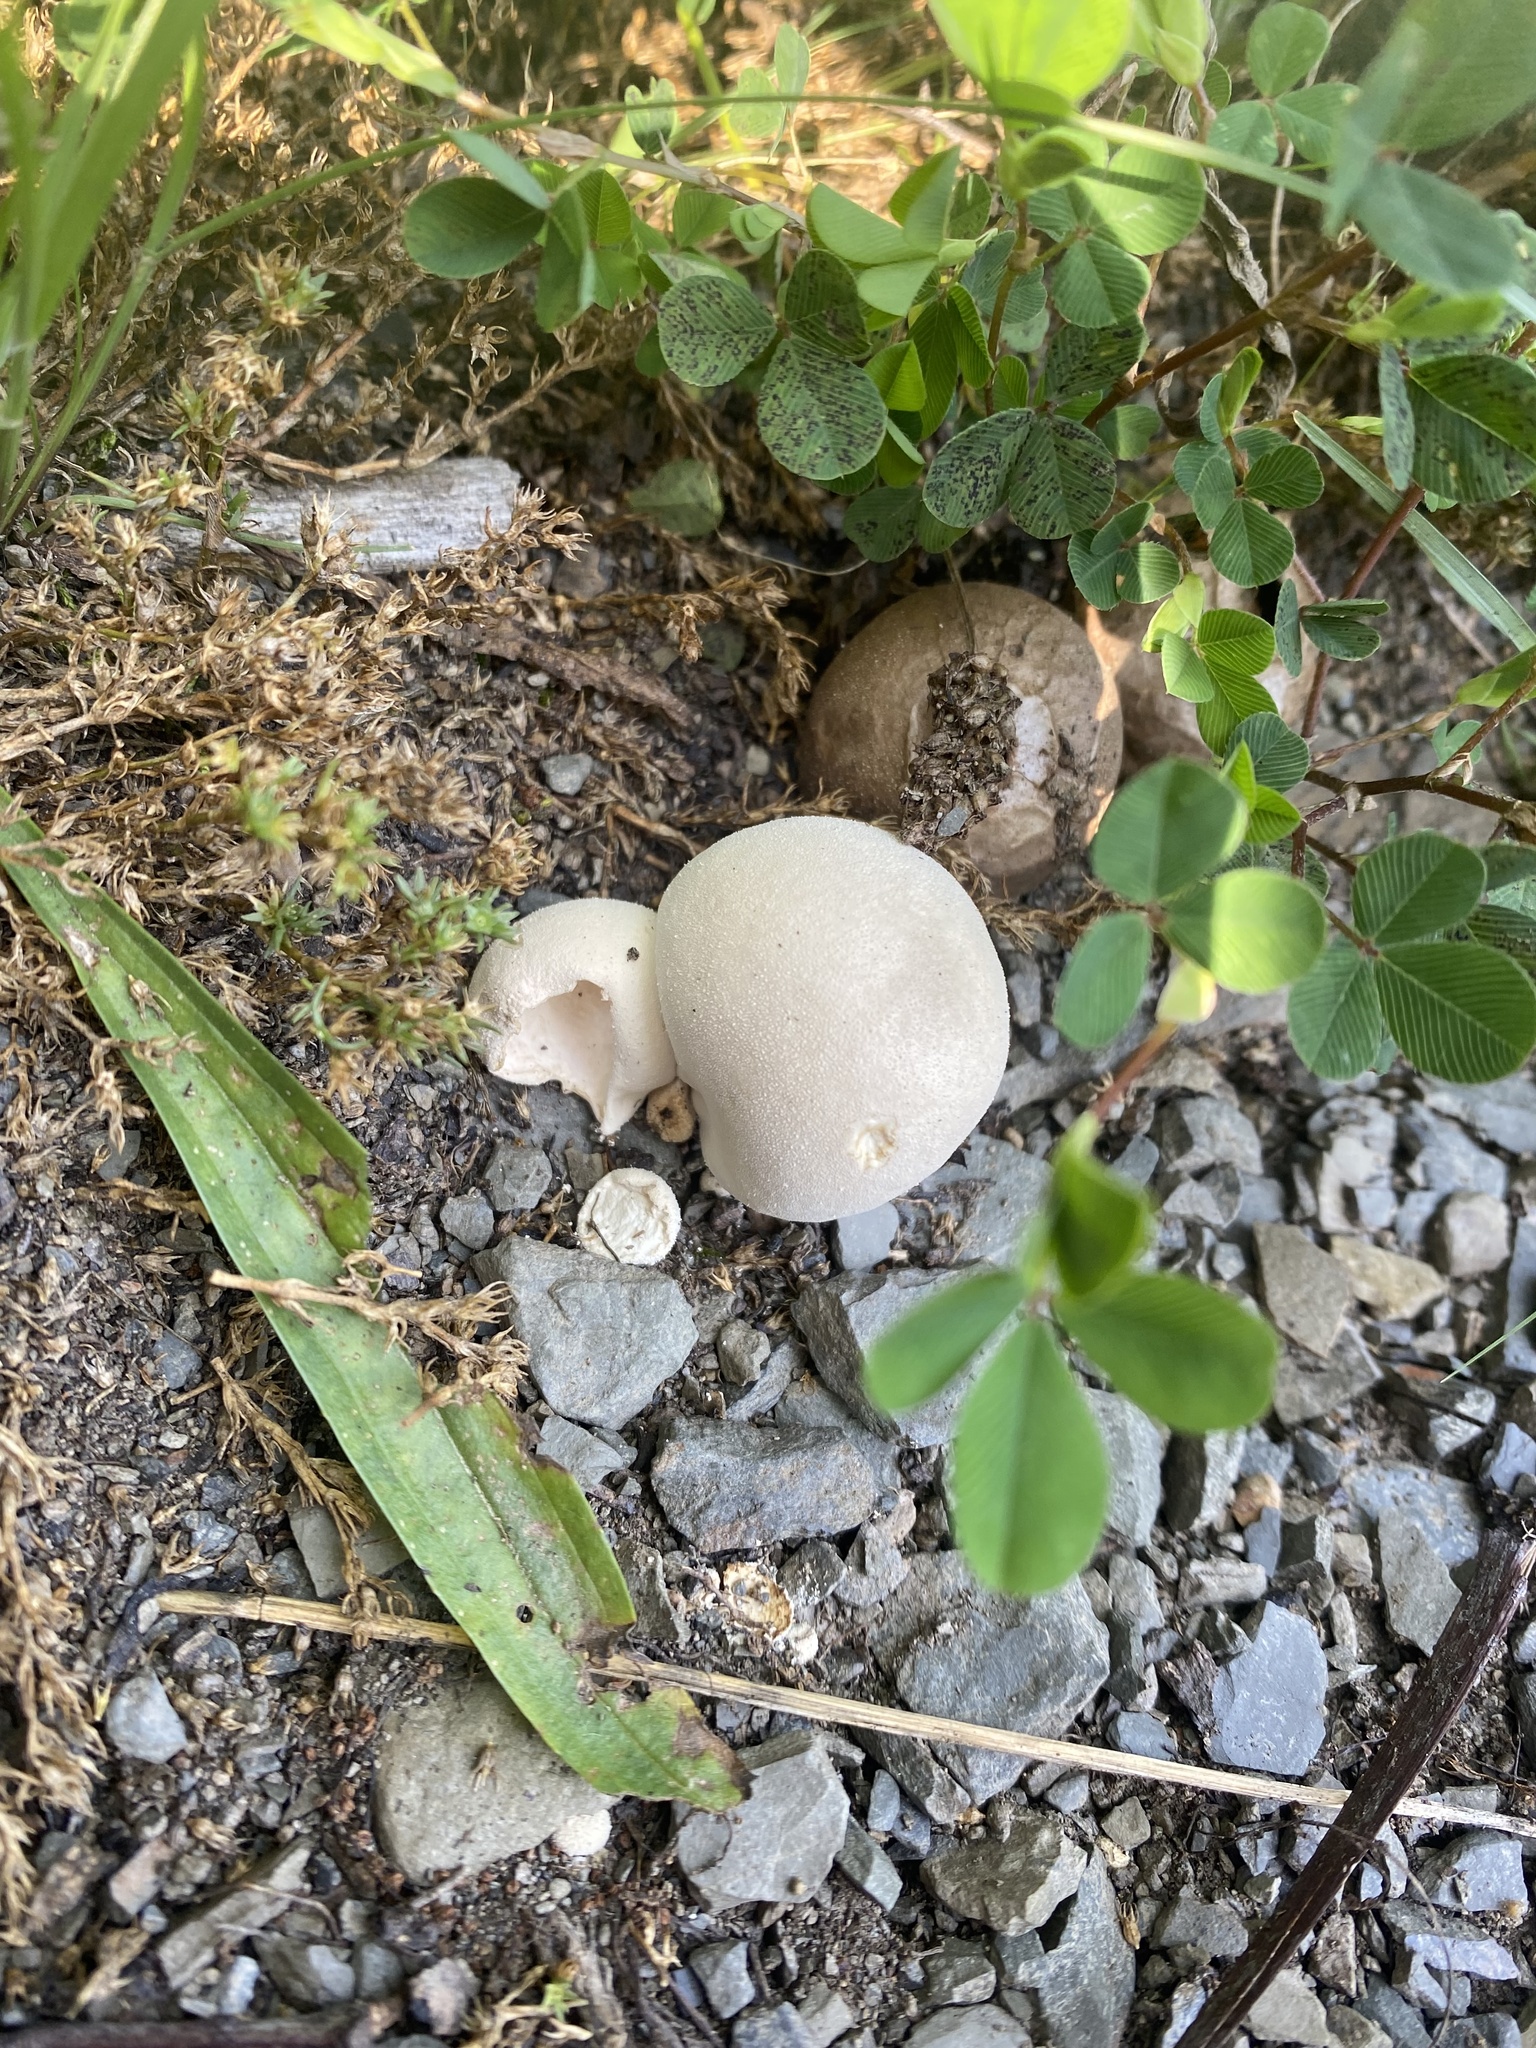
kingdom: Fungi
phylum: Basidiomycota
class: Agaricomycetes
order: Agaricales
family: Lycoperdaceae
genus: Lycoperdon
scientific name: Lycoperdon perlatum
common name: Common puffball
